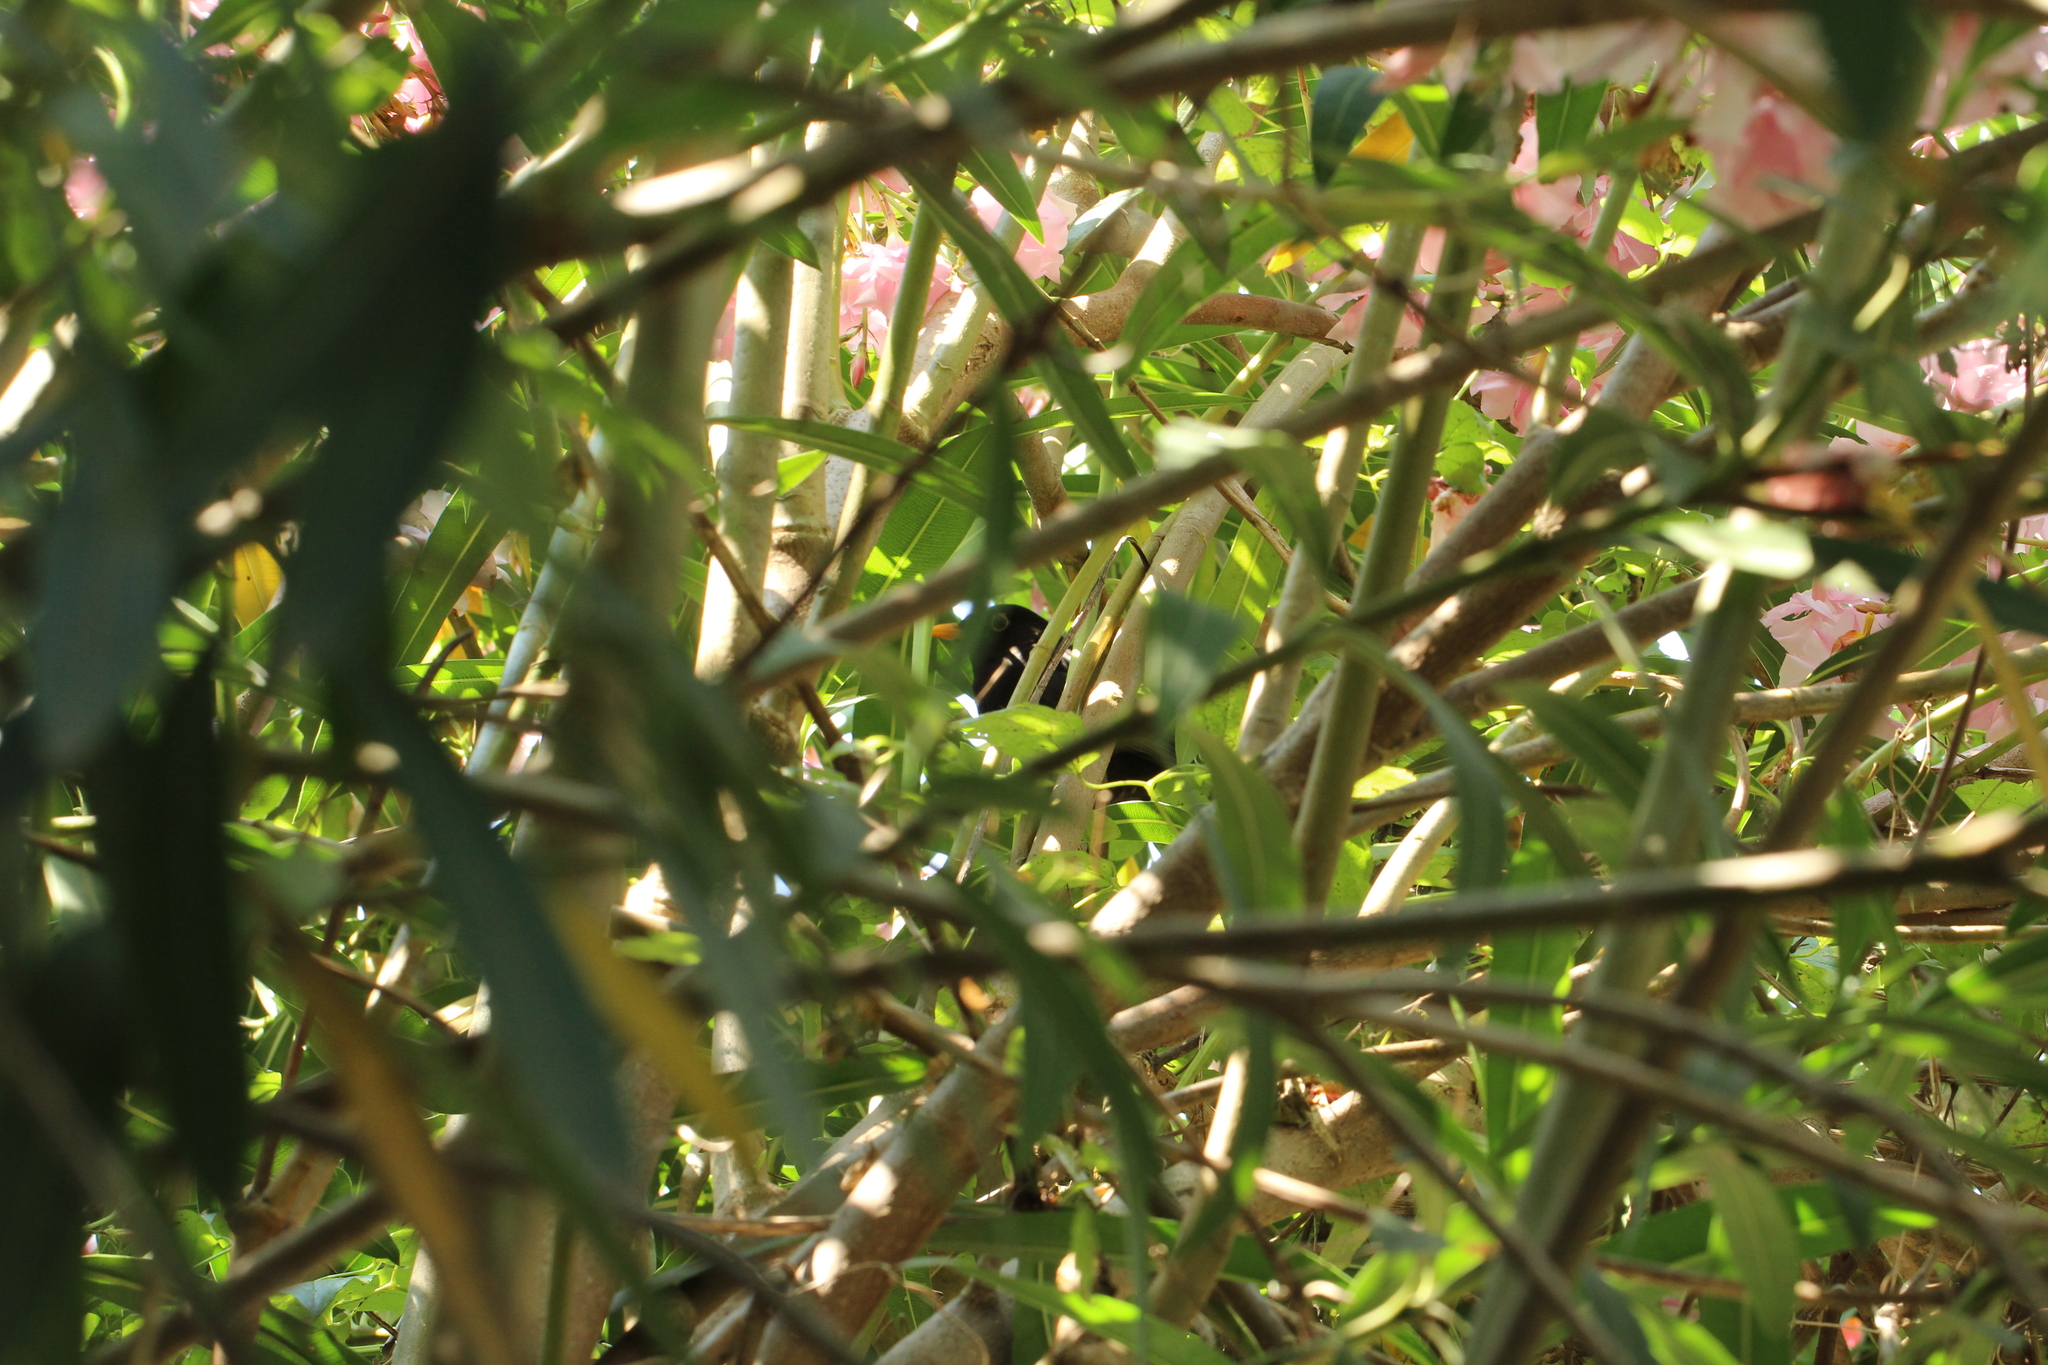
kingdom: Animalia
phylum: Chordata
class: Aves
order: Passeriformes
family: Turdidae
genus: Turdus
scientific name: Turdus merula
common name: Common blackbird
